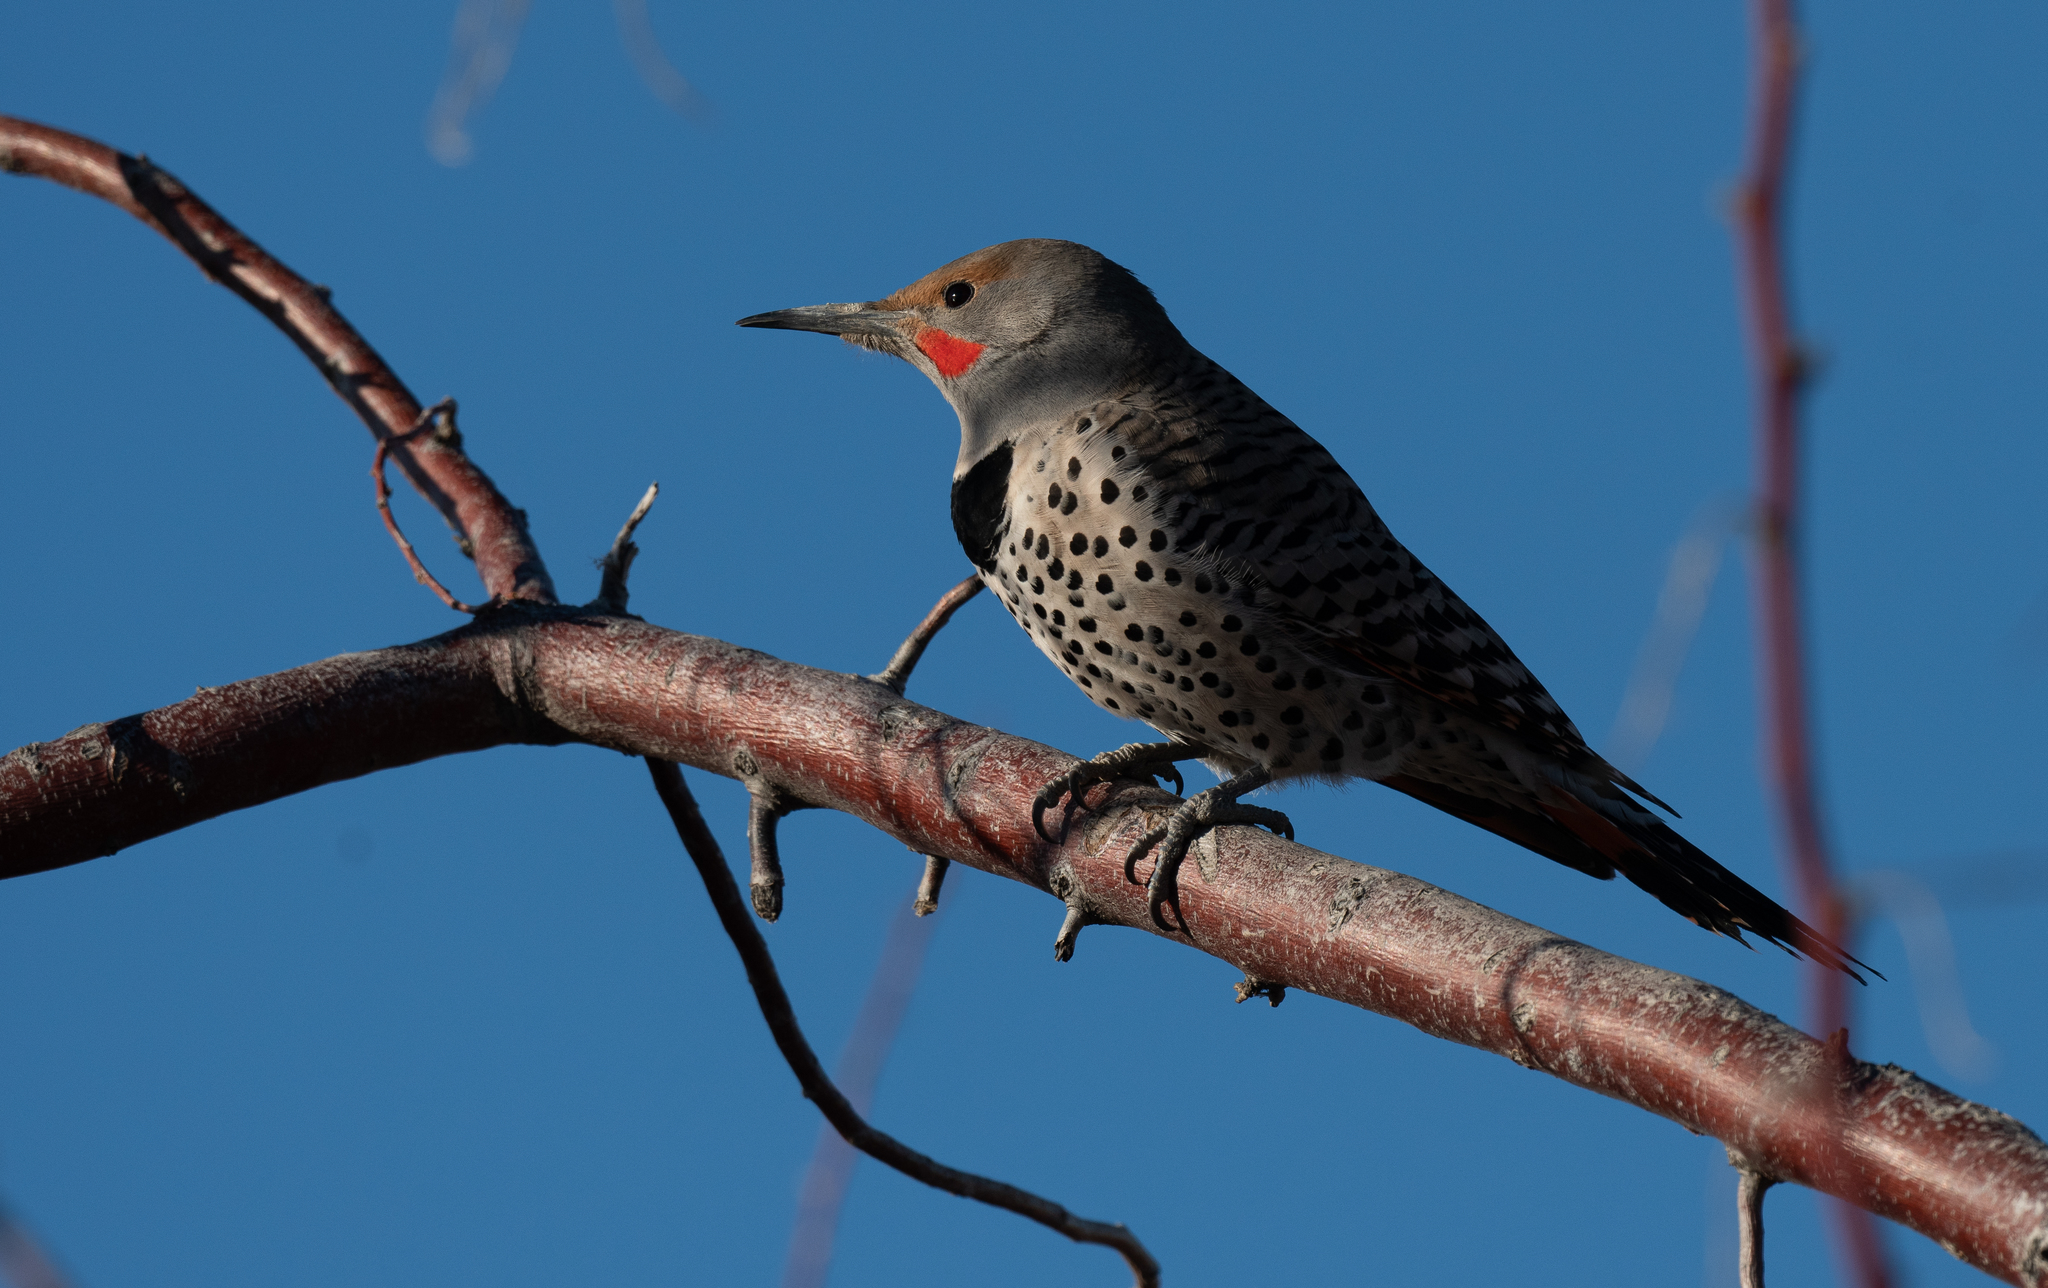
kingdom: Animalia
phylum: Chordata
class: Aves
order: Piciformes
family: Picidae
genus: Colaptes
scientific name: Colaptes auratus
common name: Northern flicker
